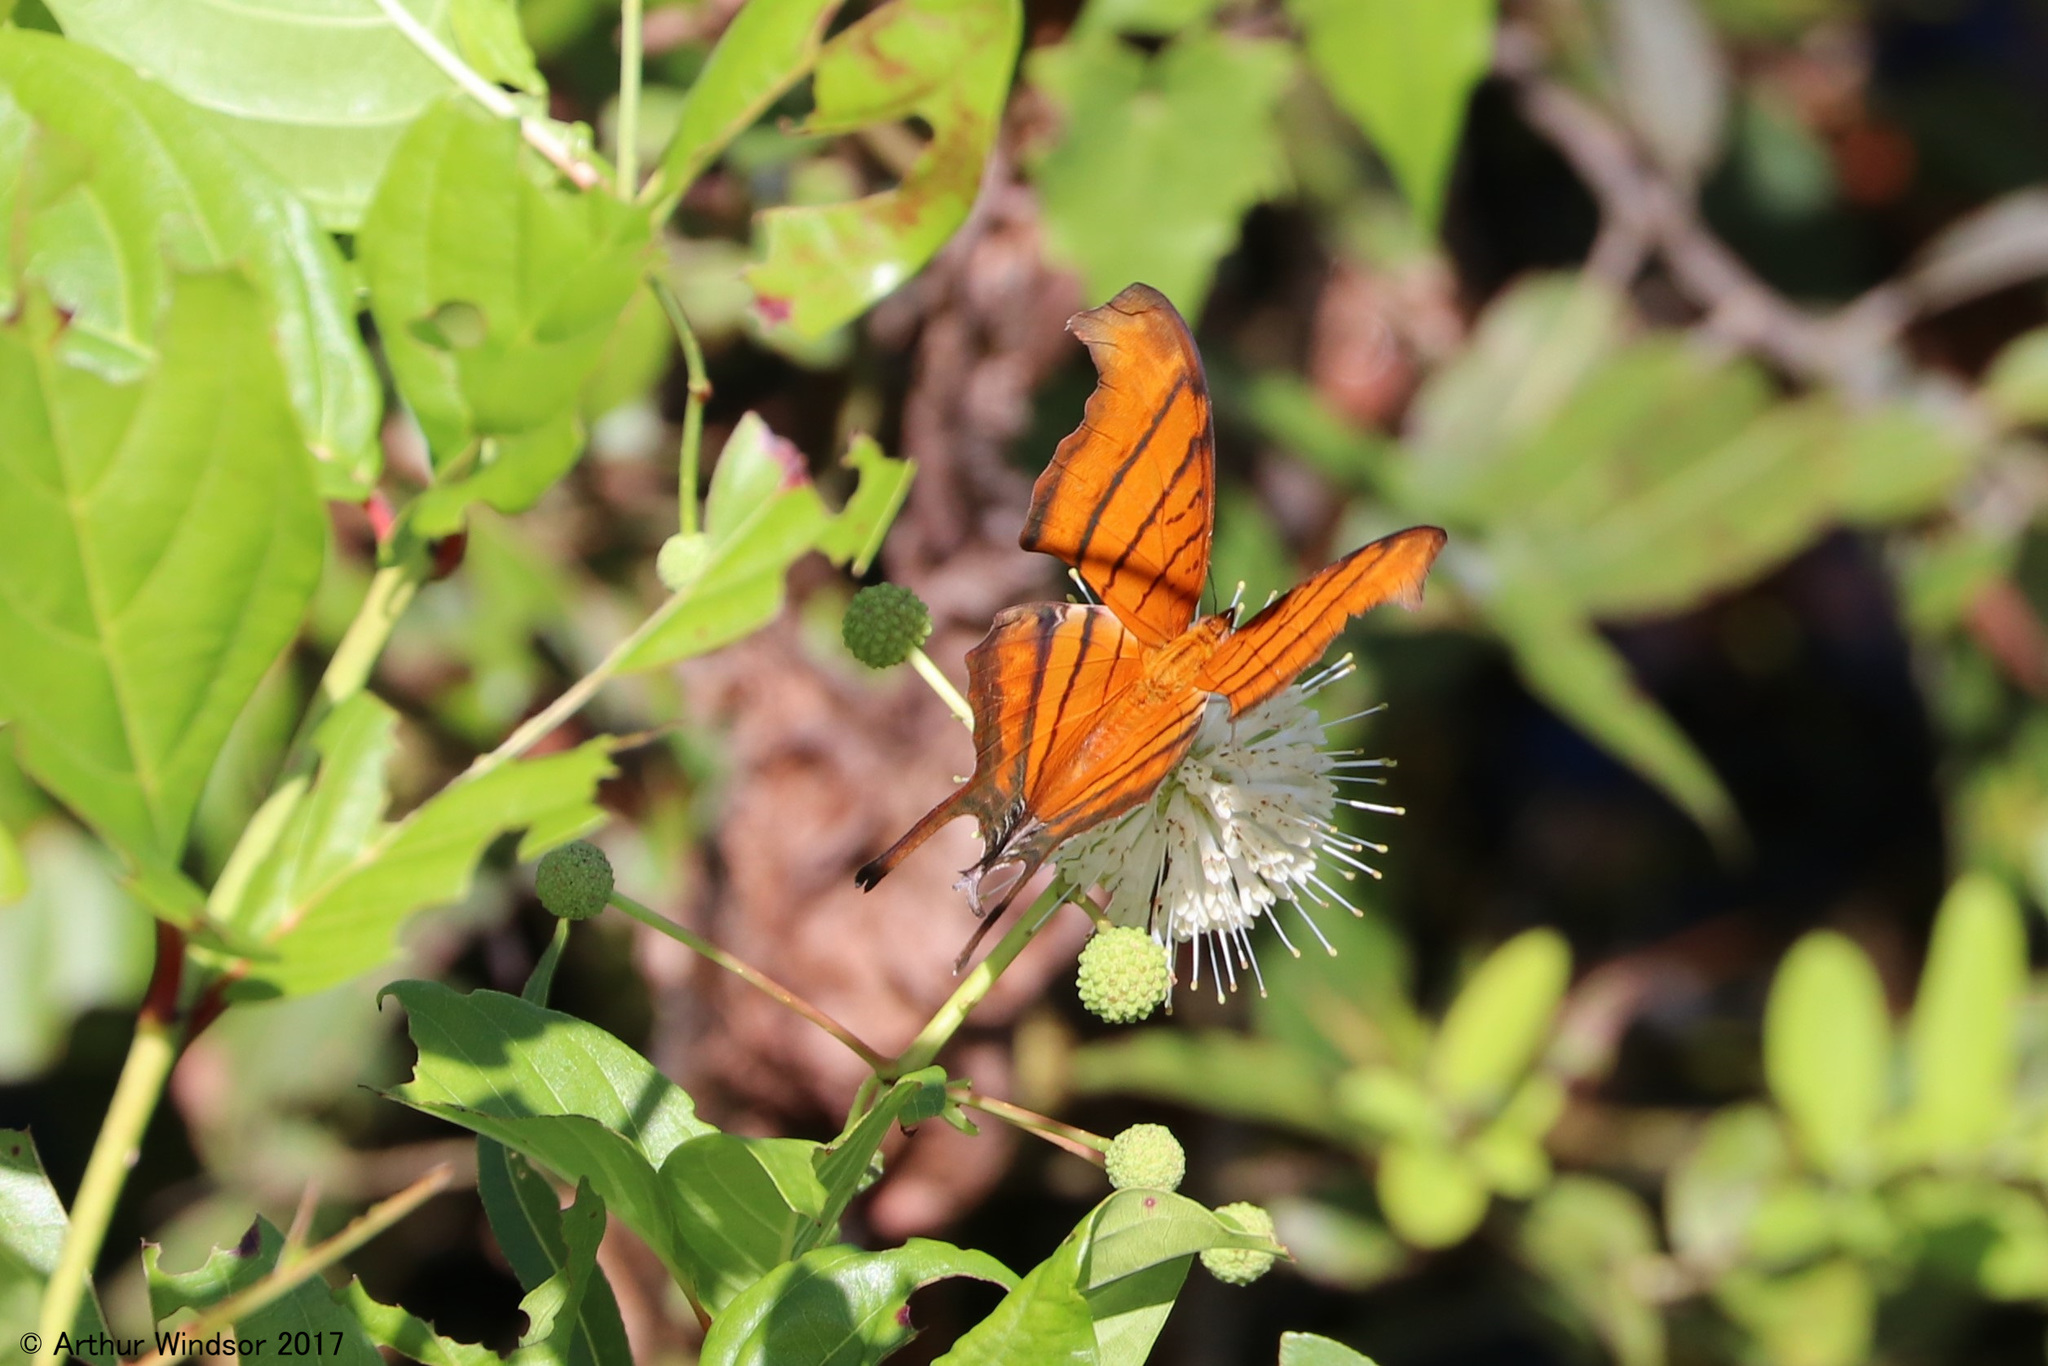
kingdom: Animalia
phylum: Arthropoda
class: Insecta
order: Lepidoptera
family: Nymphalidae
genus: Marpesia
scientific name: Marpesia petreus
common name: Red dagger wing
